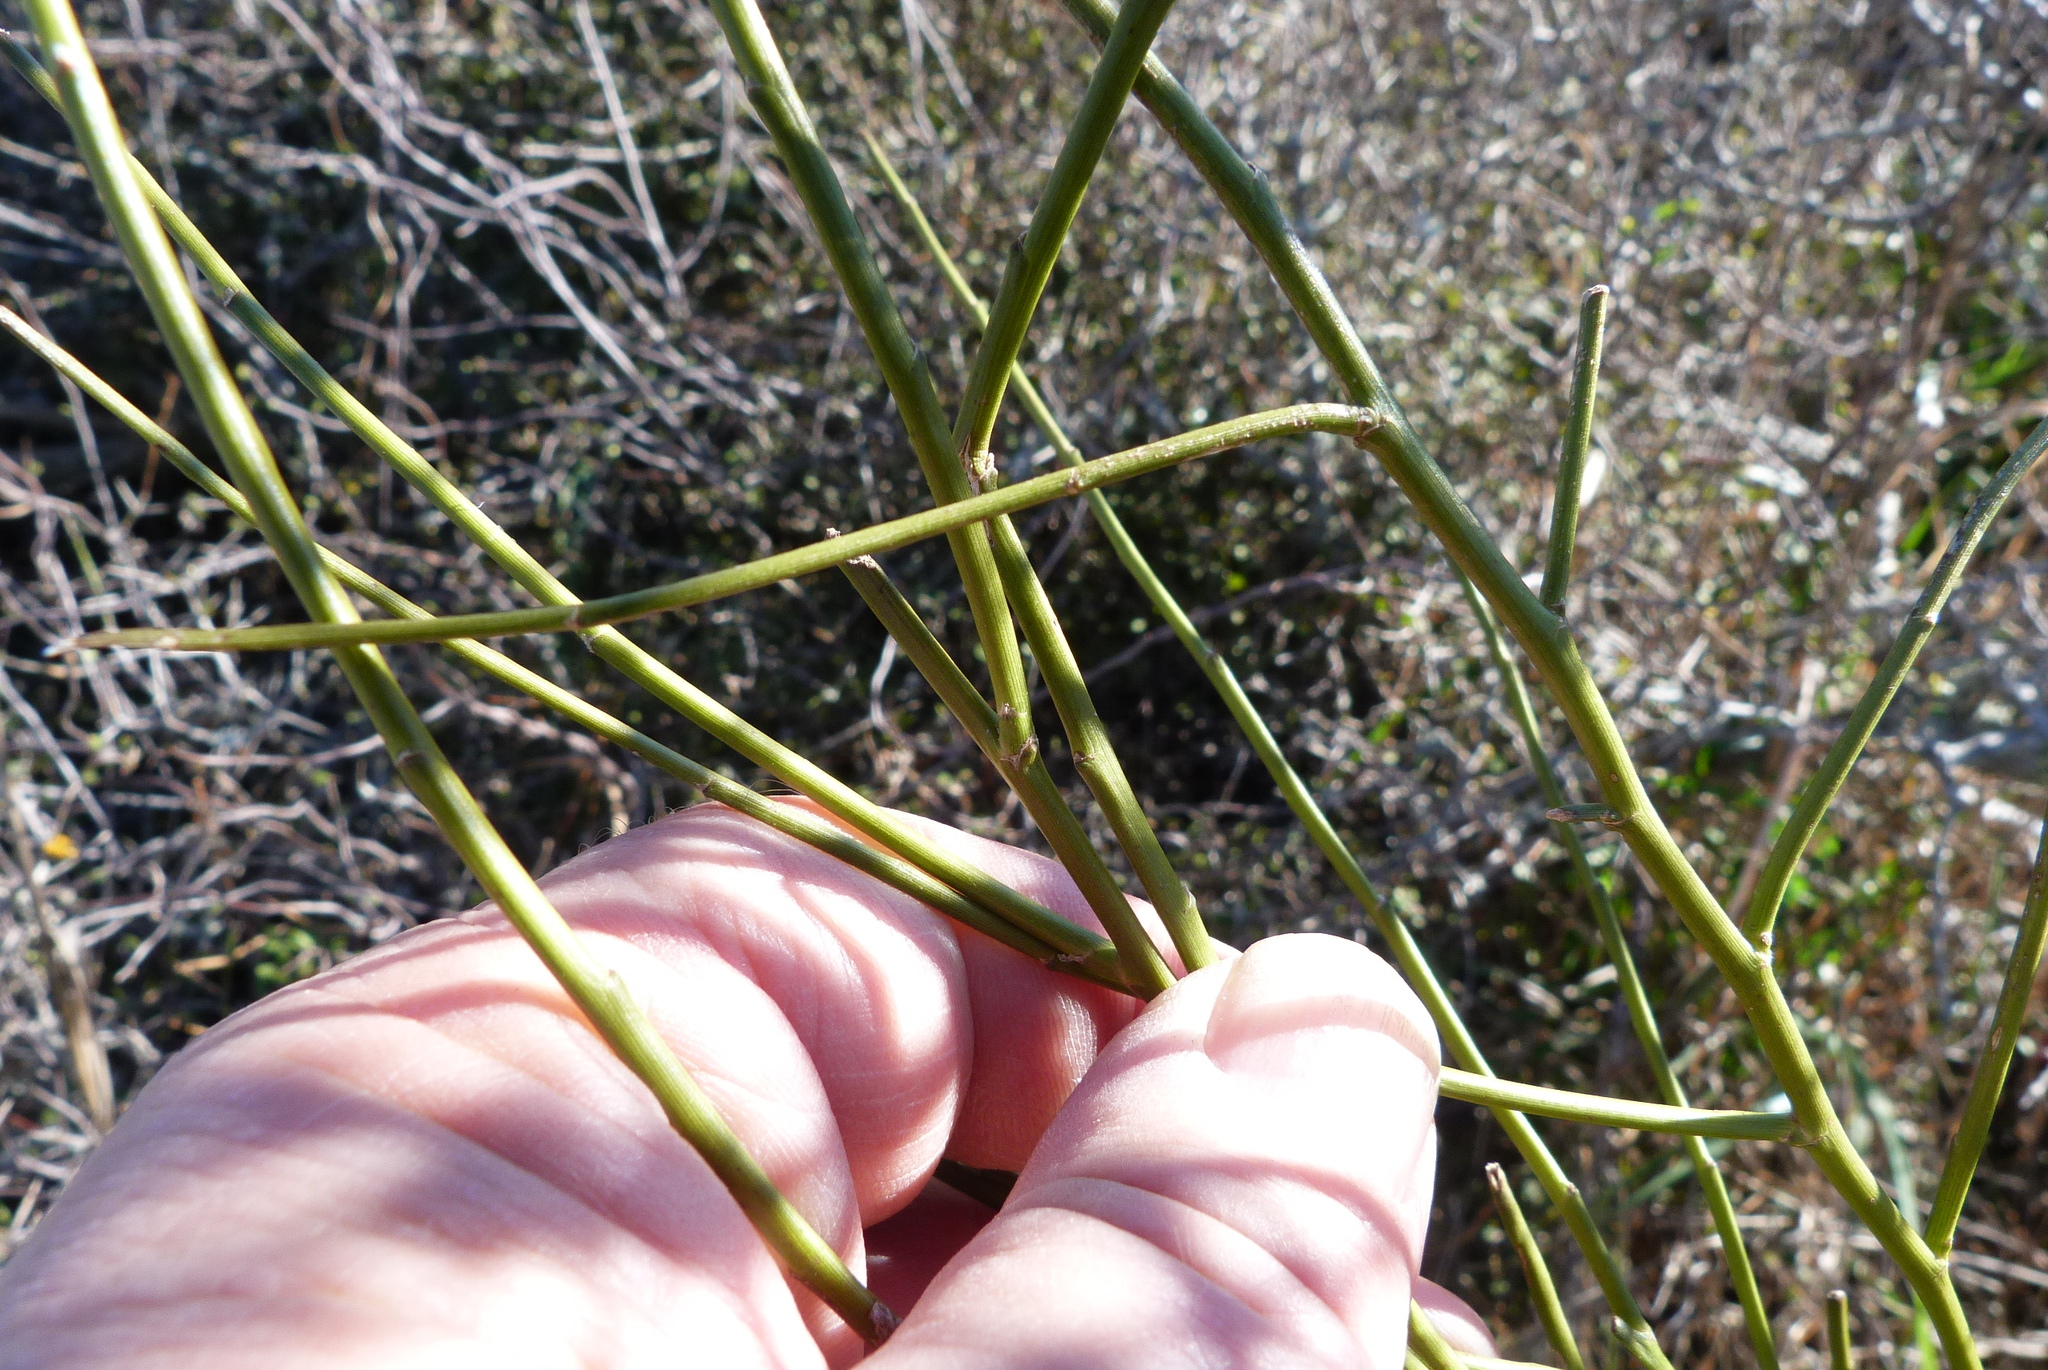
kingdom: Plantae
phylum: Tracheophyta
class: Magnoliopsida
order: Fabales
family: Fabaceae
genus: Carmichaelia
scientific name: Carmichaelia australis
